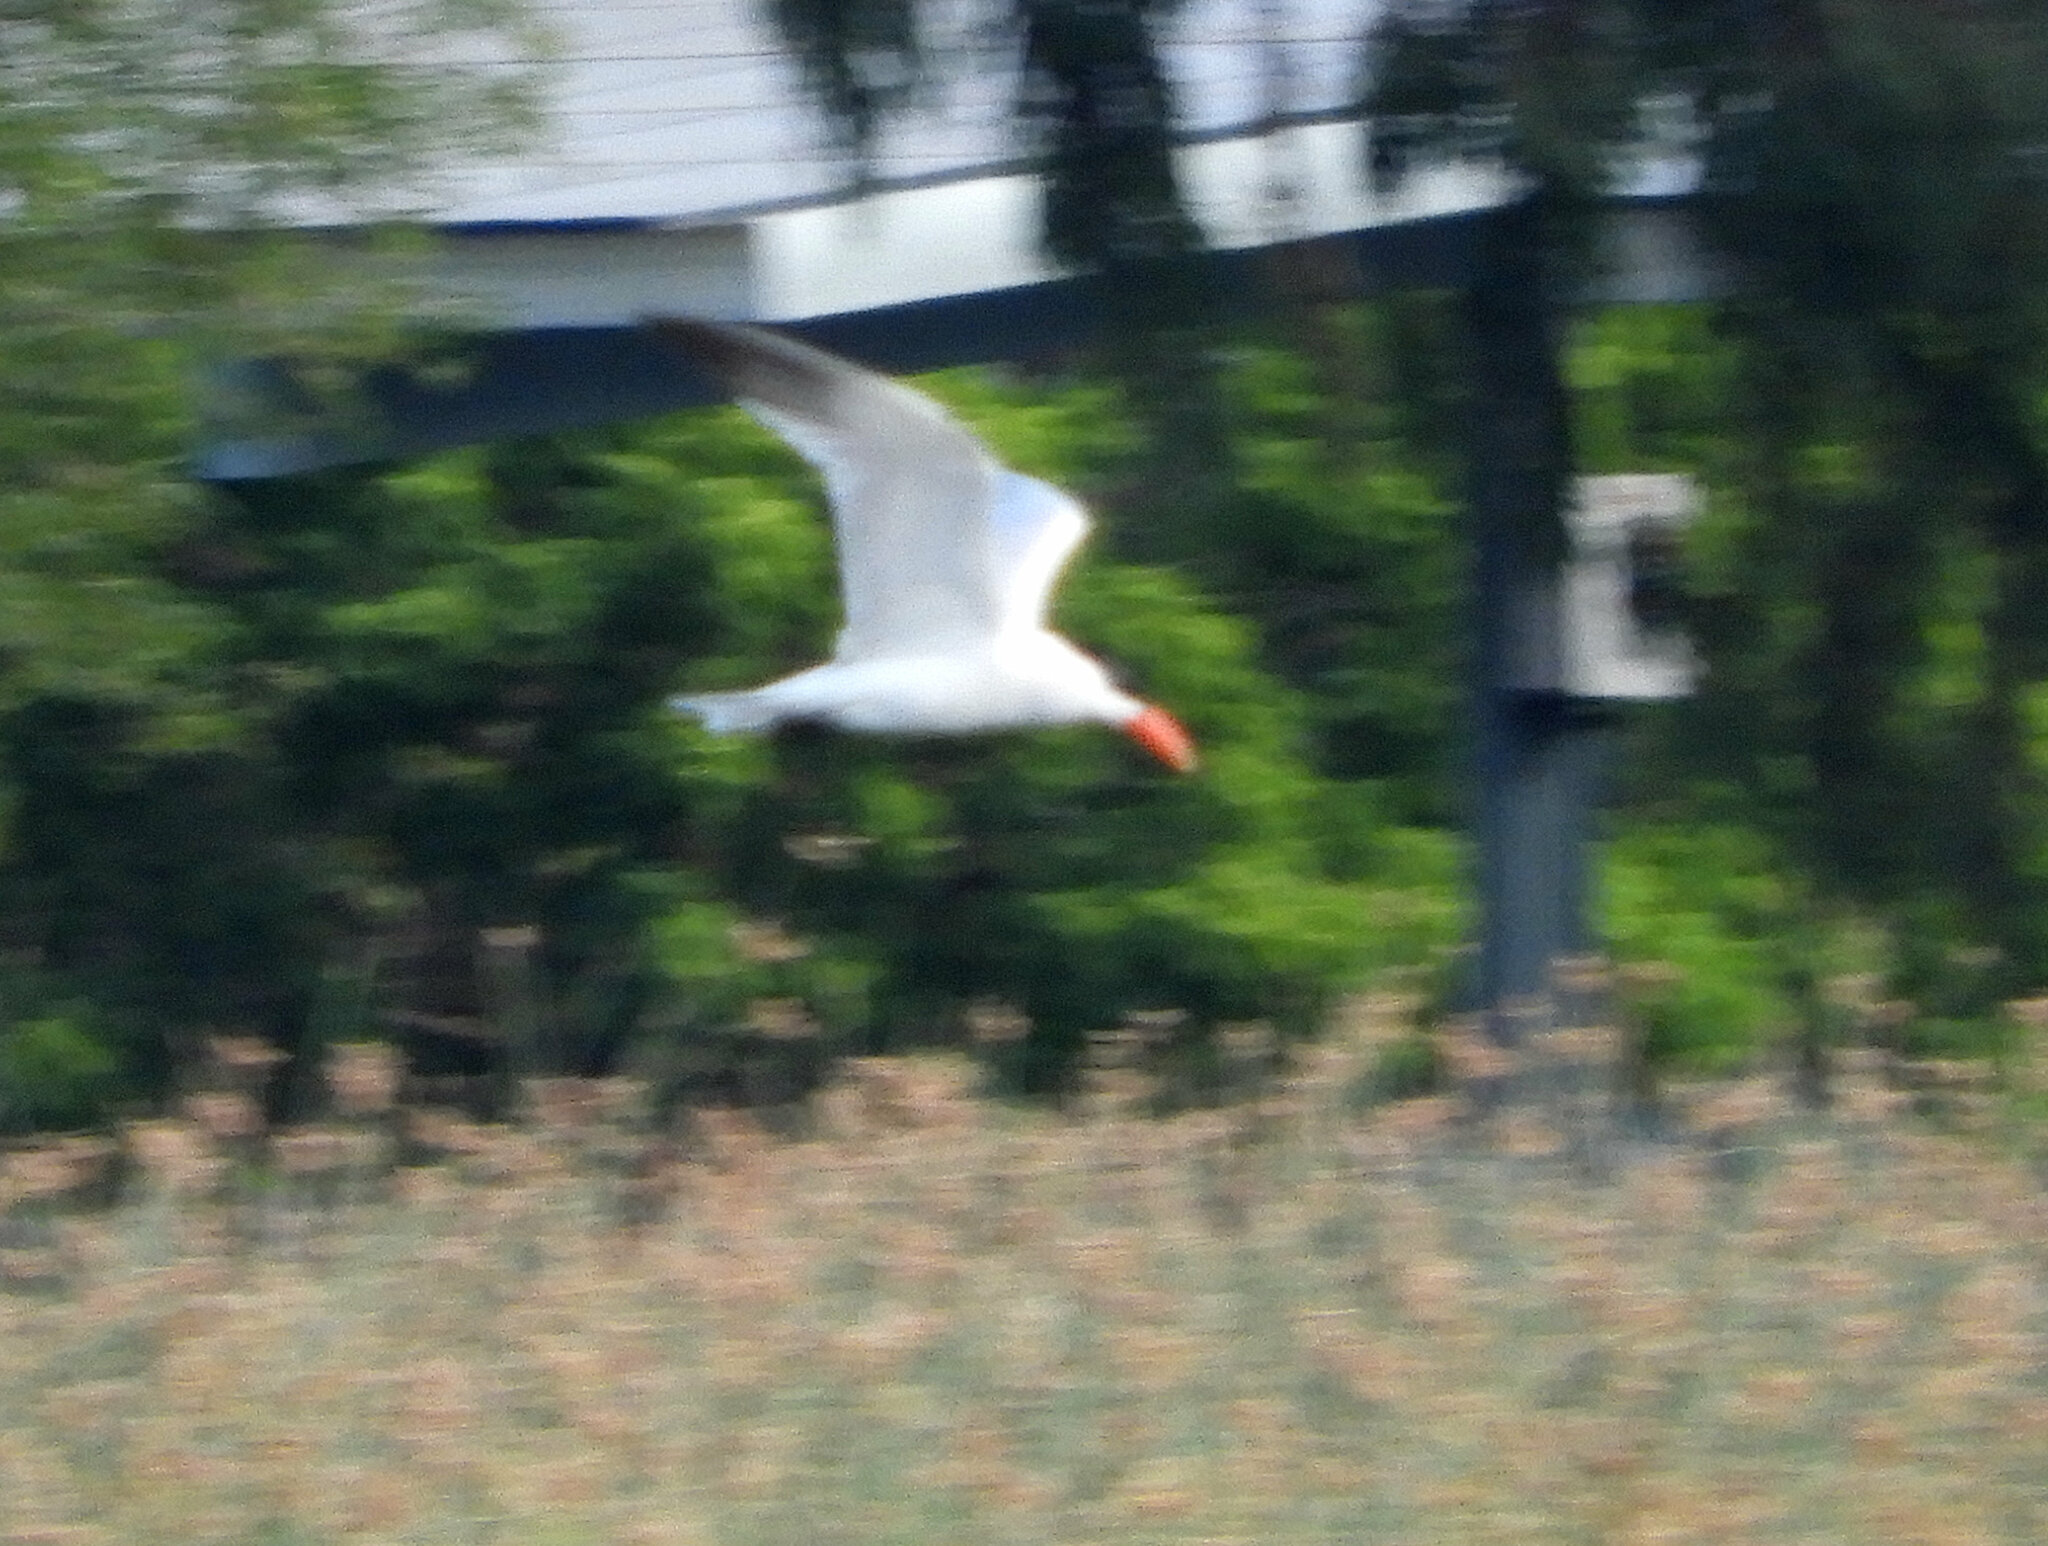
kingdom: Animalia
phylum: Chordata
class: Aves
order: Charadriiformes
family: Laridae
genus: Hydroprogne
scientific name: Hydroprogne caspia
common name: Caspian tern
